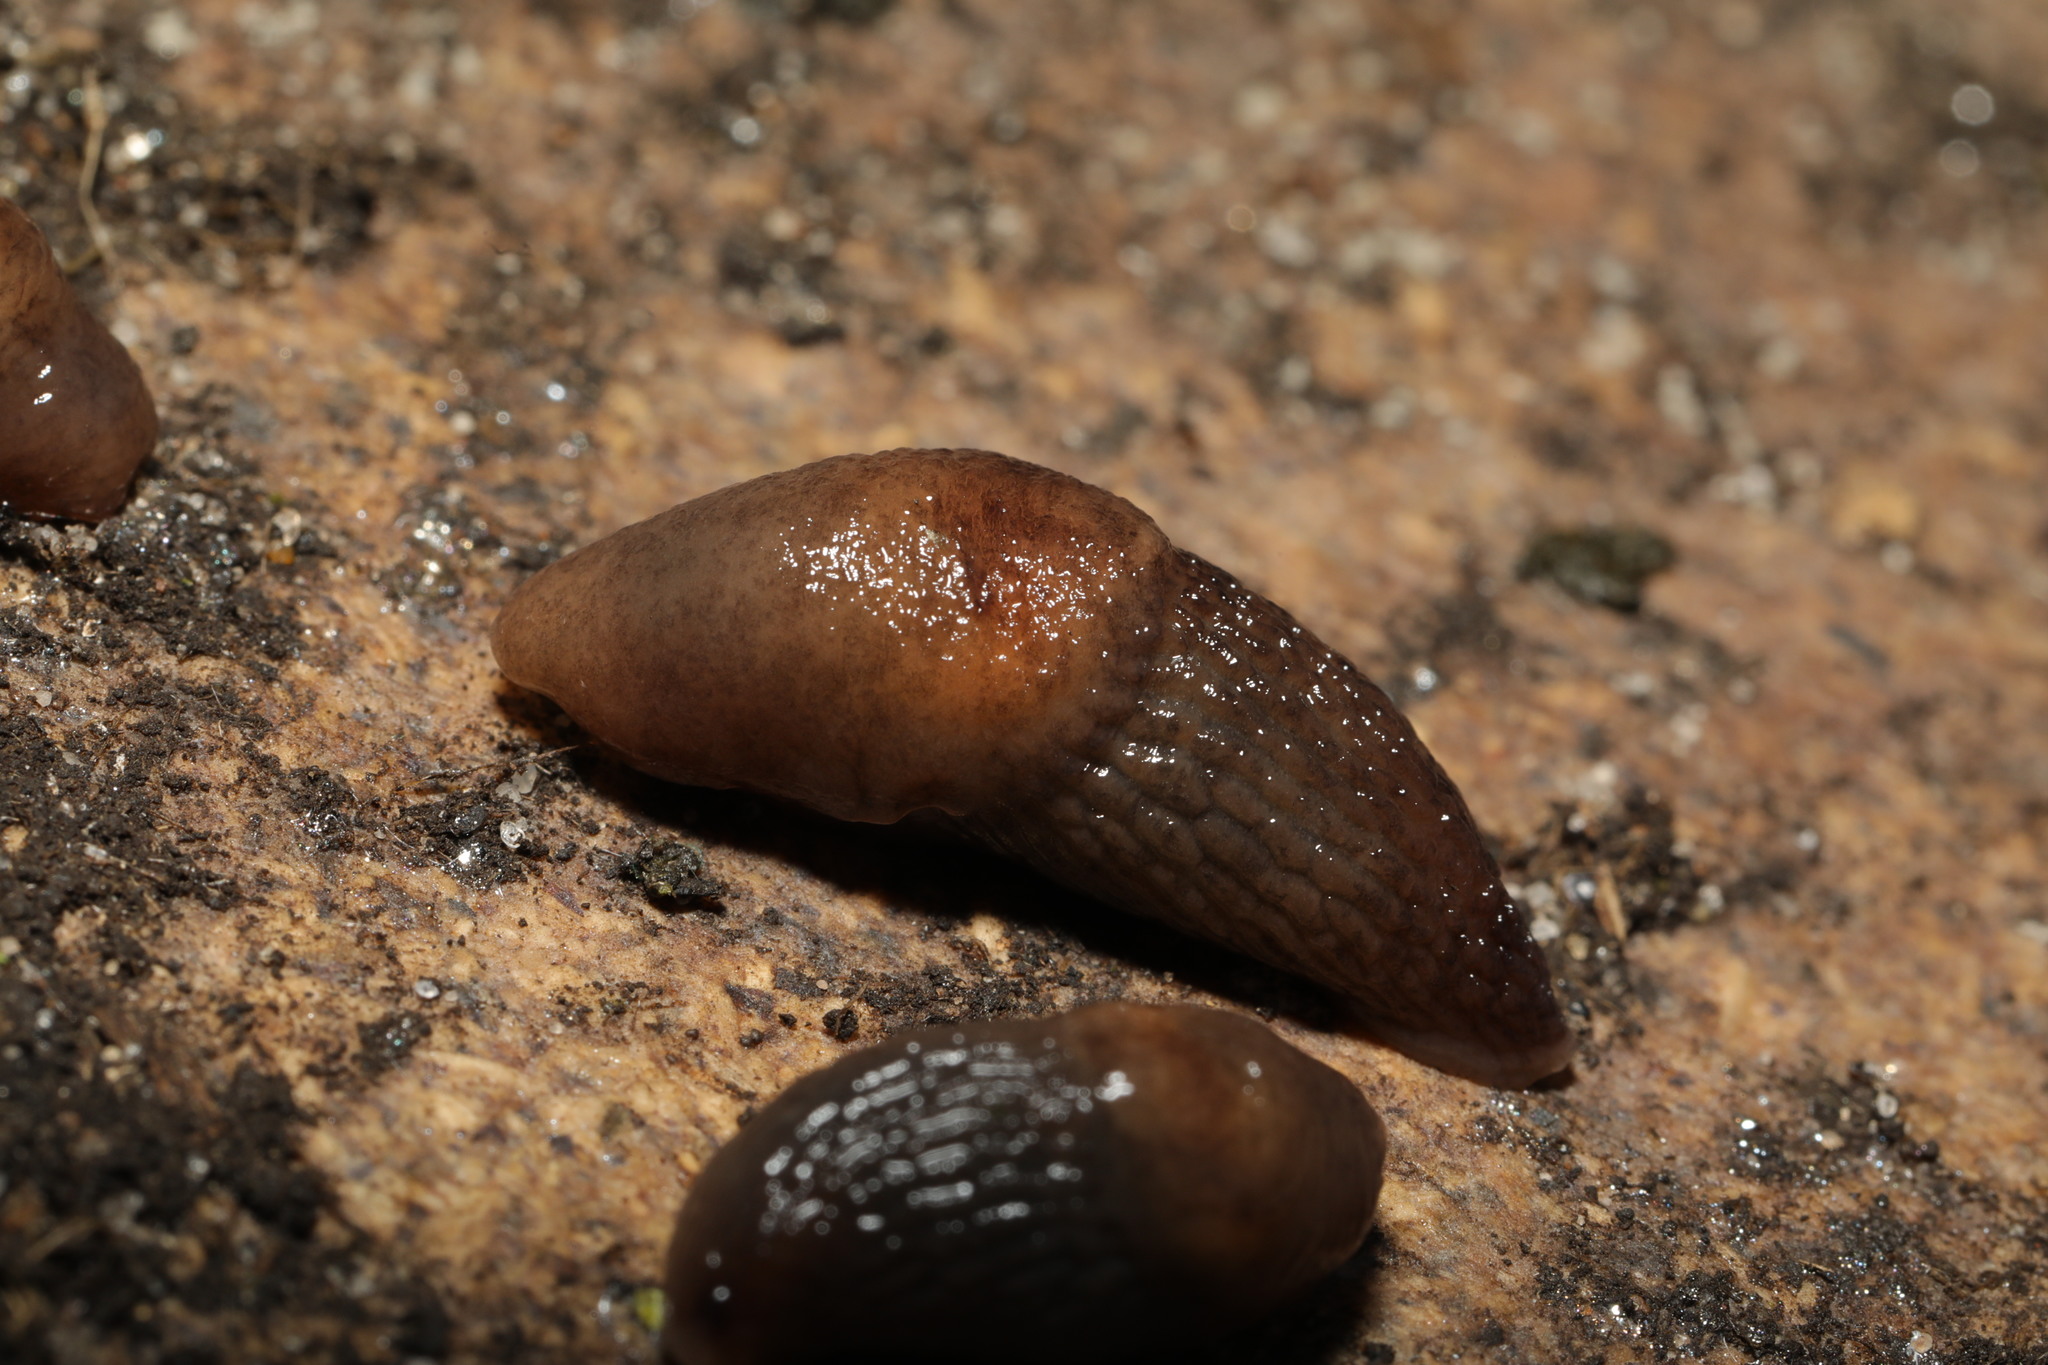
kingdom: Animalia
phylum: Mollusca
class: Gastropoda
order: Stylommatophora
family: Agriolimacidae
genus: Deroceras
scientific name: Deroceras invadens
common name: Caruana's slug
